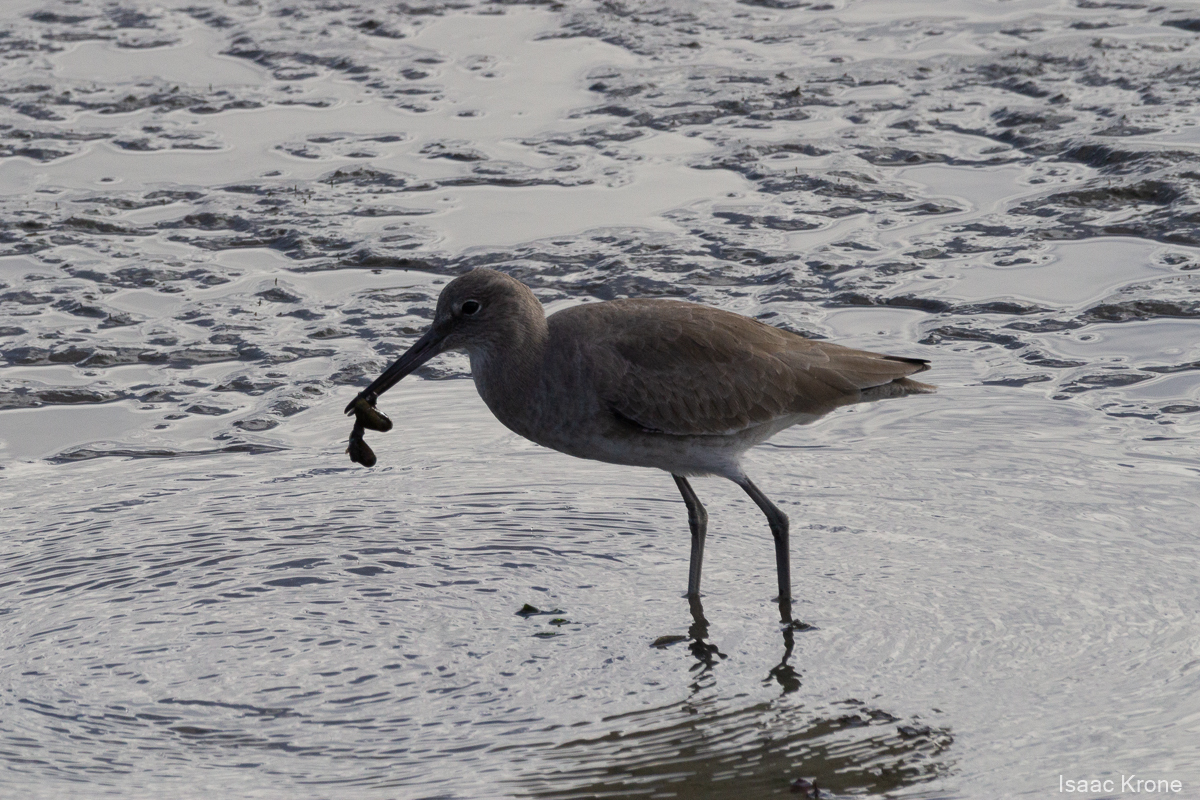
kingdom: Animalia
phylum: Chordata
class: Aves
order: Charadriiformes
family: Scolopacidae
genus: Tringa
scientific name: Tringa semipalmata
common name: Willet
